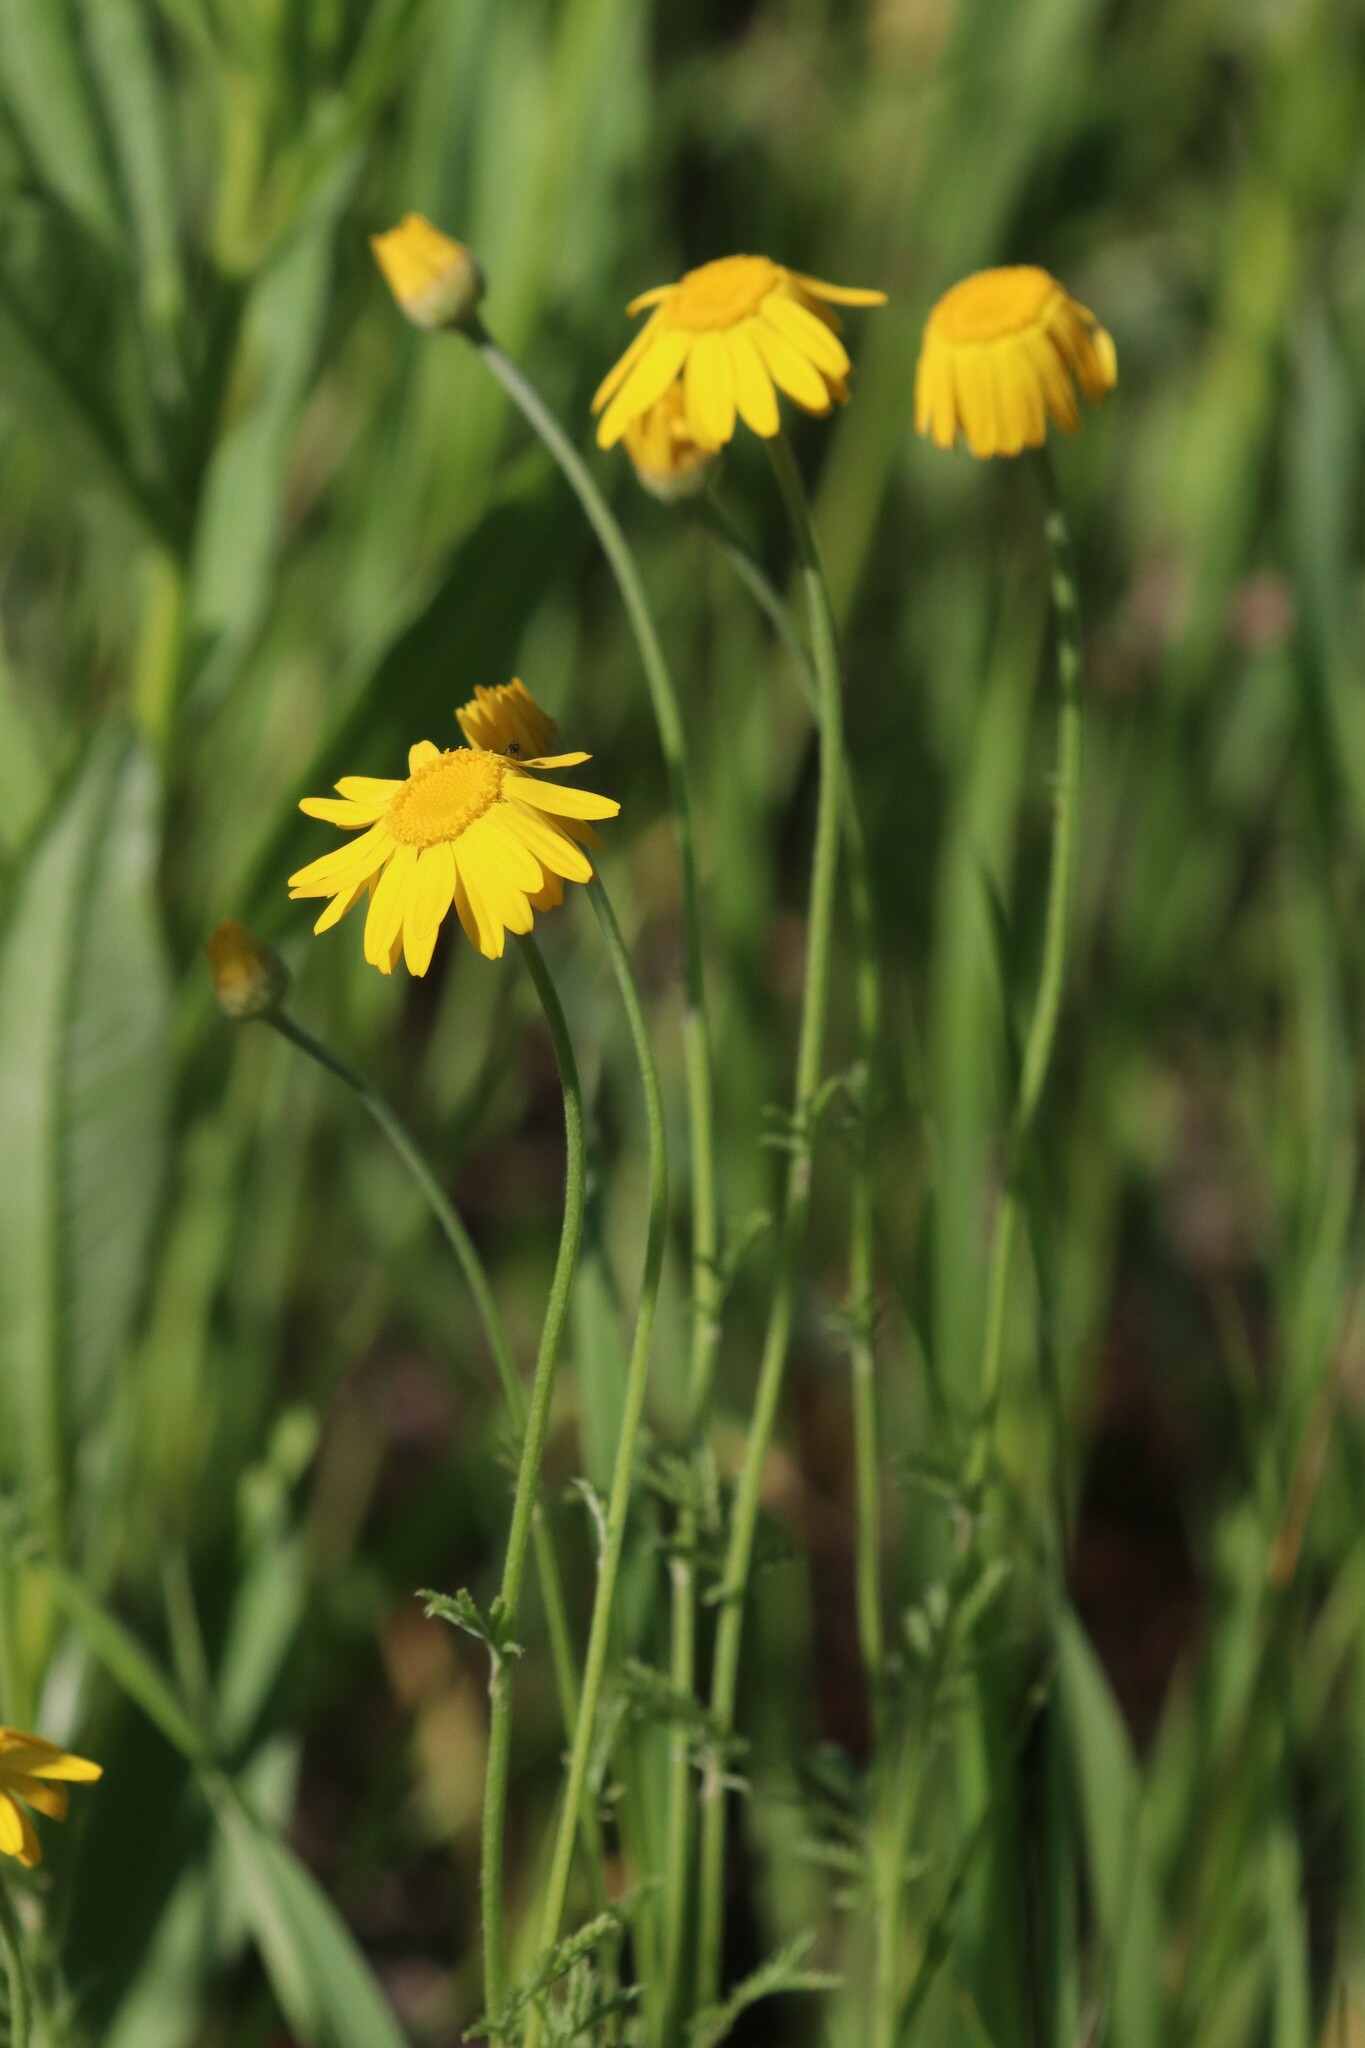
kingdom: Plantae
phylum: Tracheophyta
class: Magnoliopsida
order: Asterales
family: Asteraceae
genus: Cota
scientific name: Cota tinctoria
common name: Golden chamomile
